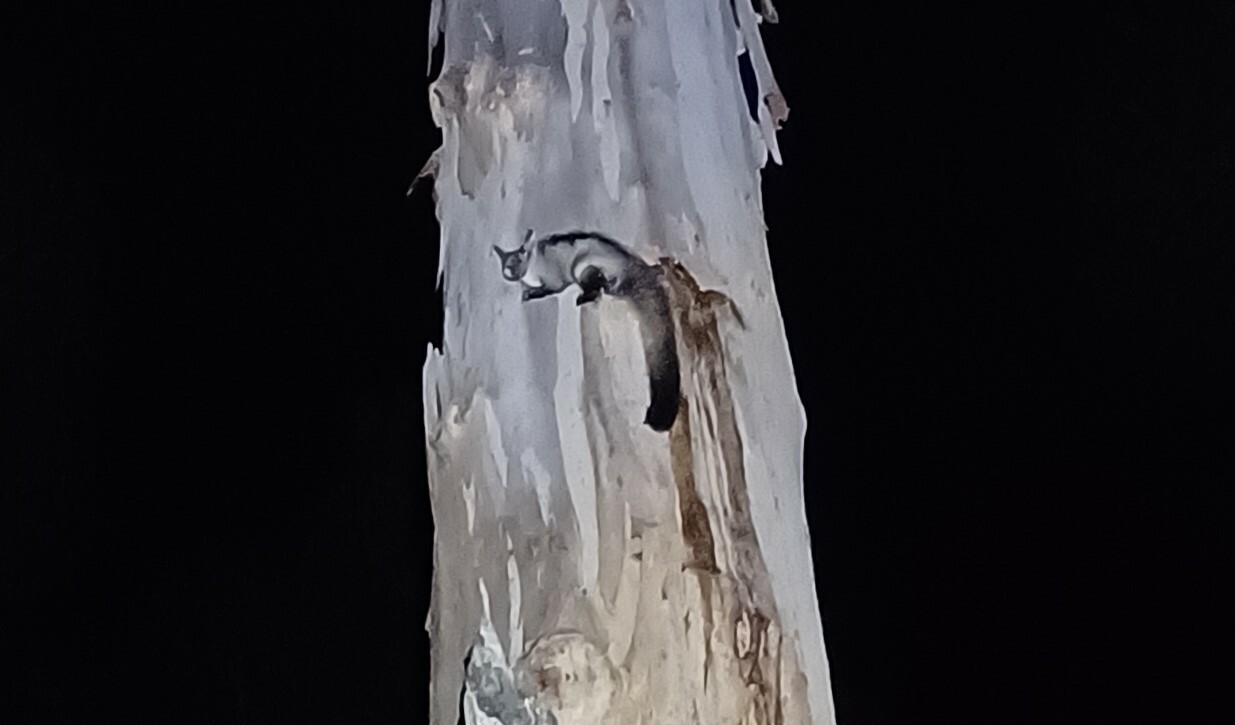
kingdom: Animalia
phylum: Chordata
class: Mammalia
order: Diprotodontia
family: Petauridae
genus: Petaurus
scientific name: Petaurus australis
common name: Yellow-bellied glider
